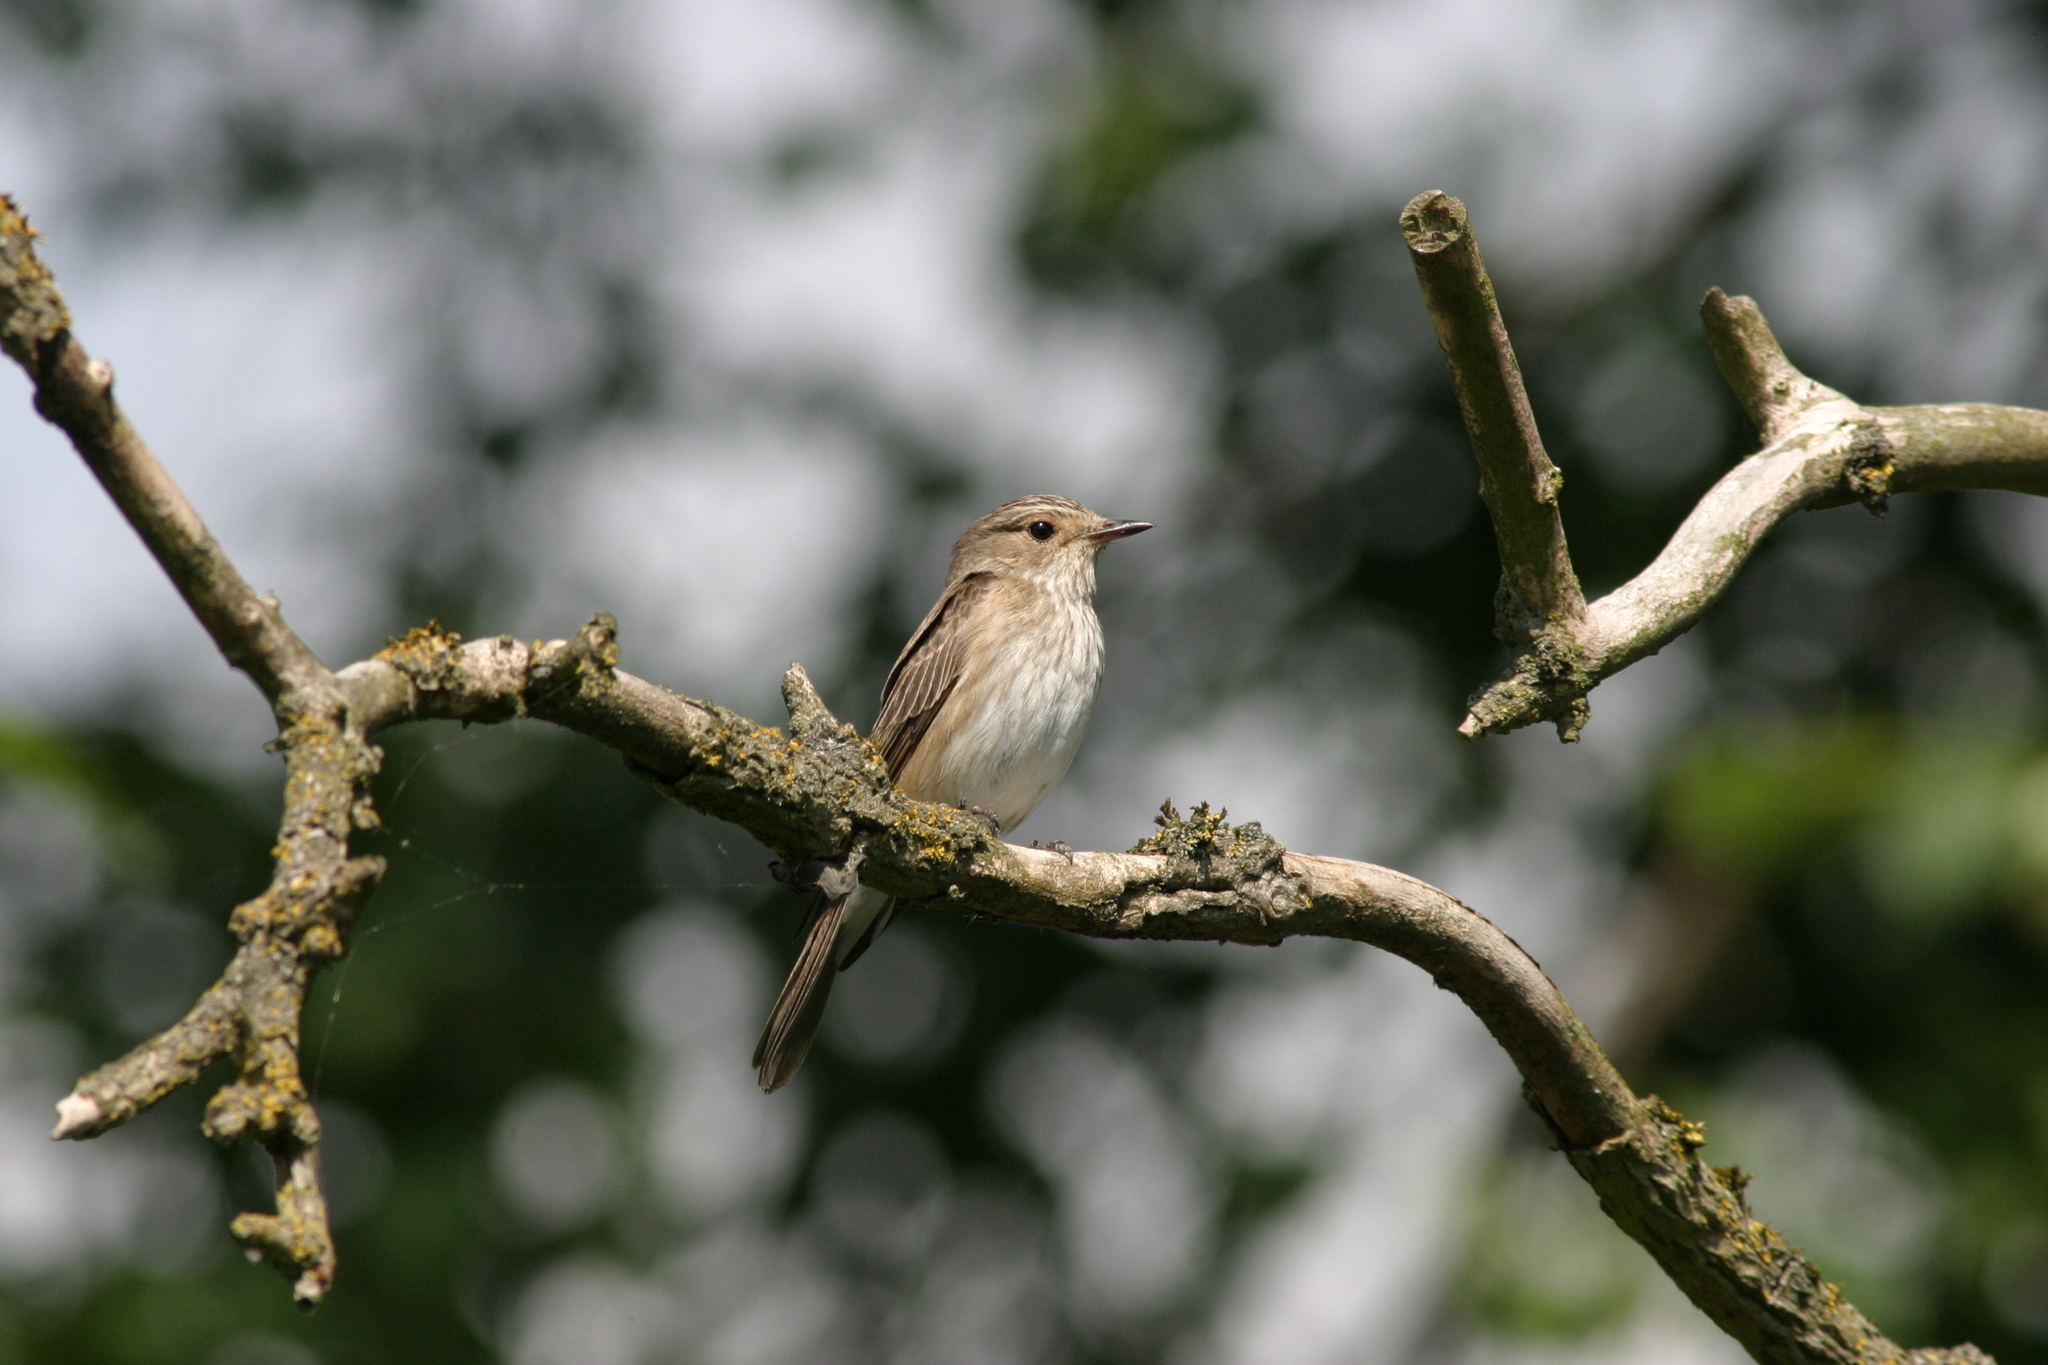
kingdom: Animalia
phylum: Chordata
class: Aves
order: Passeriformes
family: Muscicapidae
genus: Muscicapa
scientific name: Muscicapa striata
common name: Spotted flycatcher
